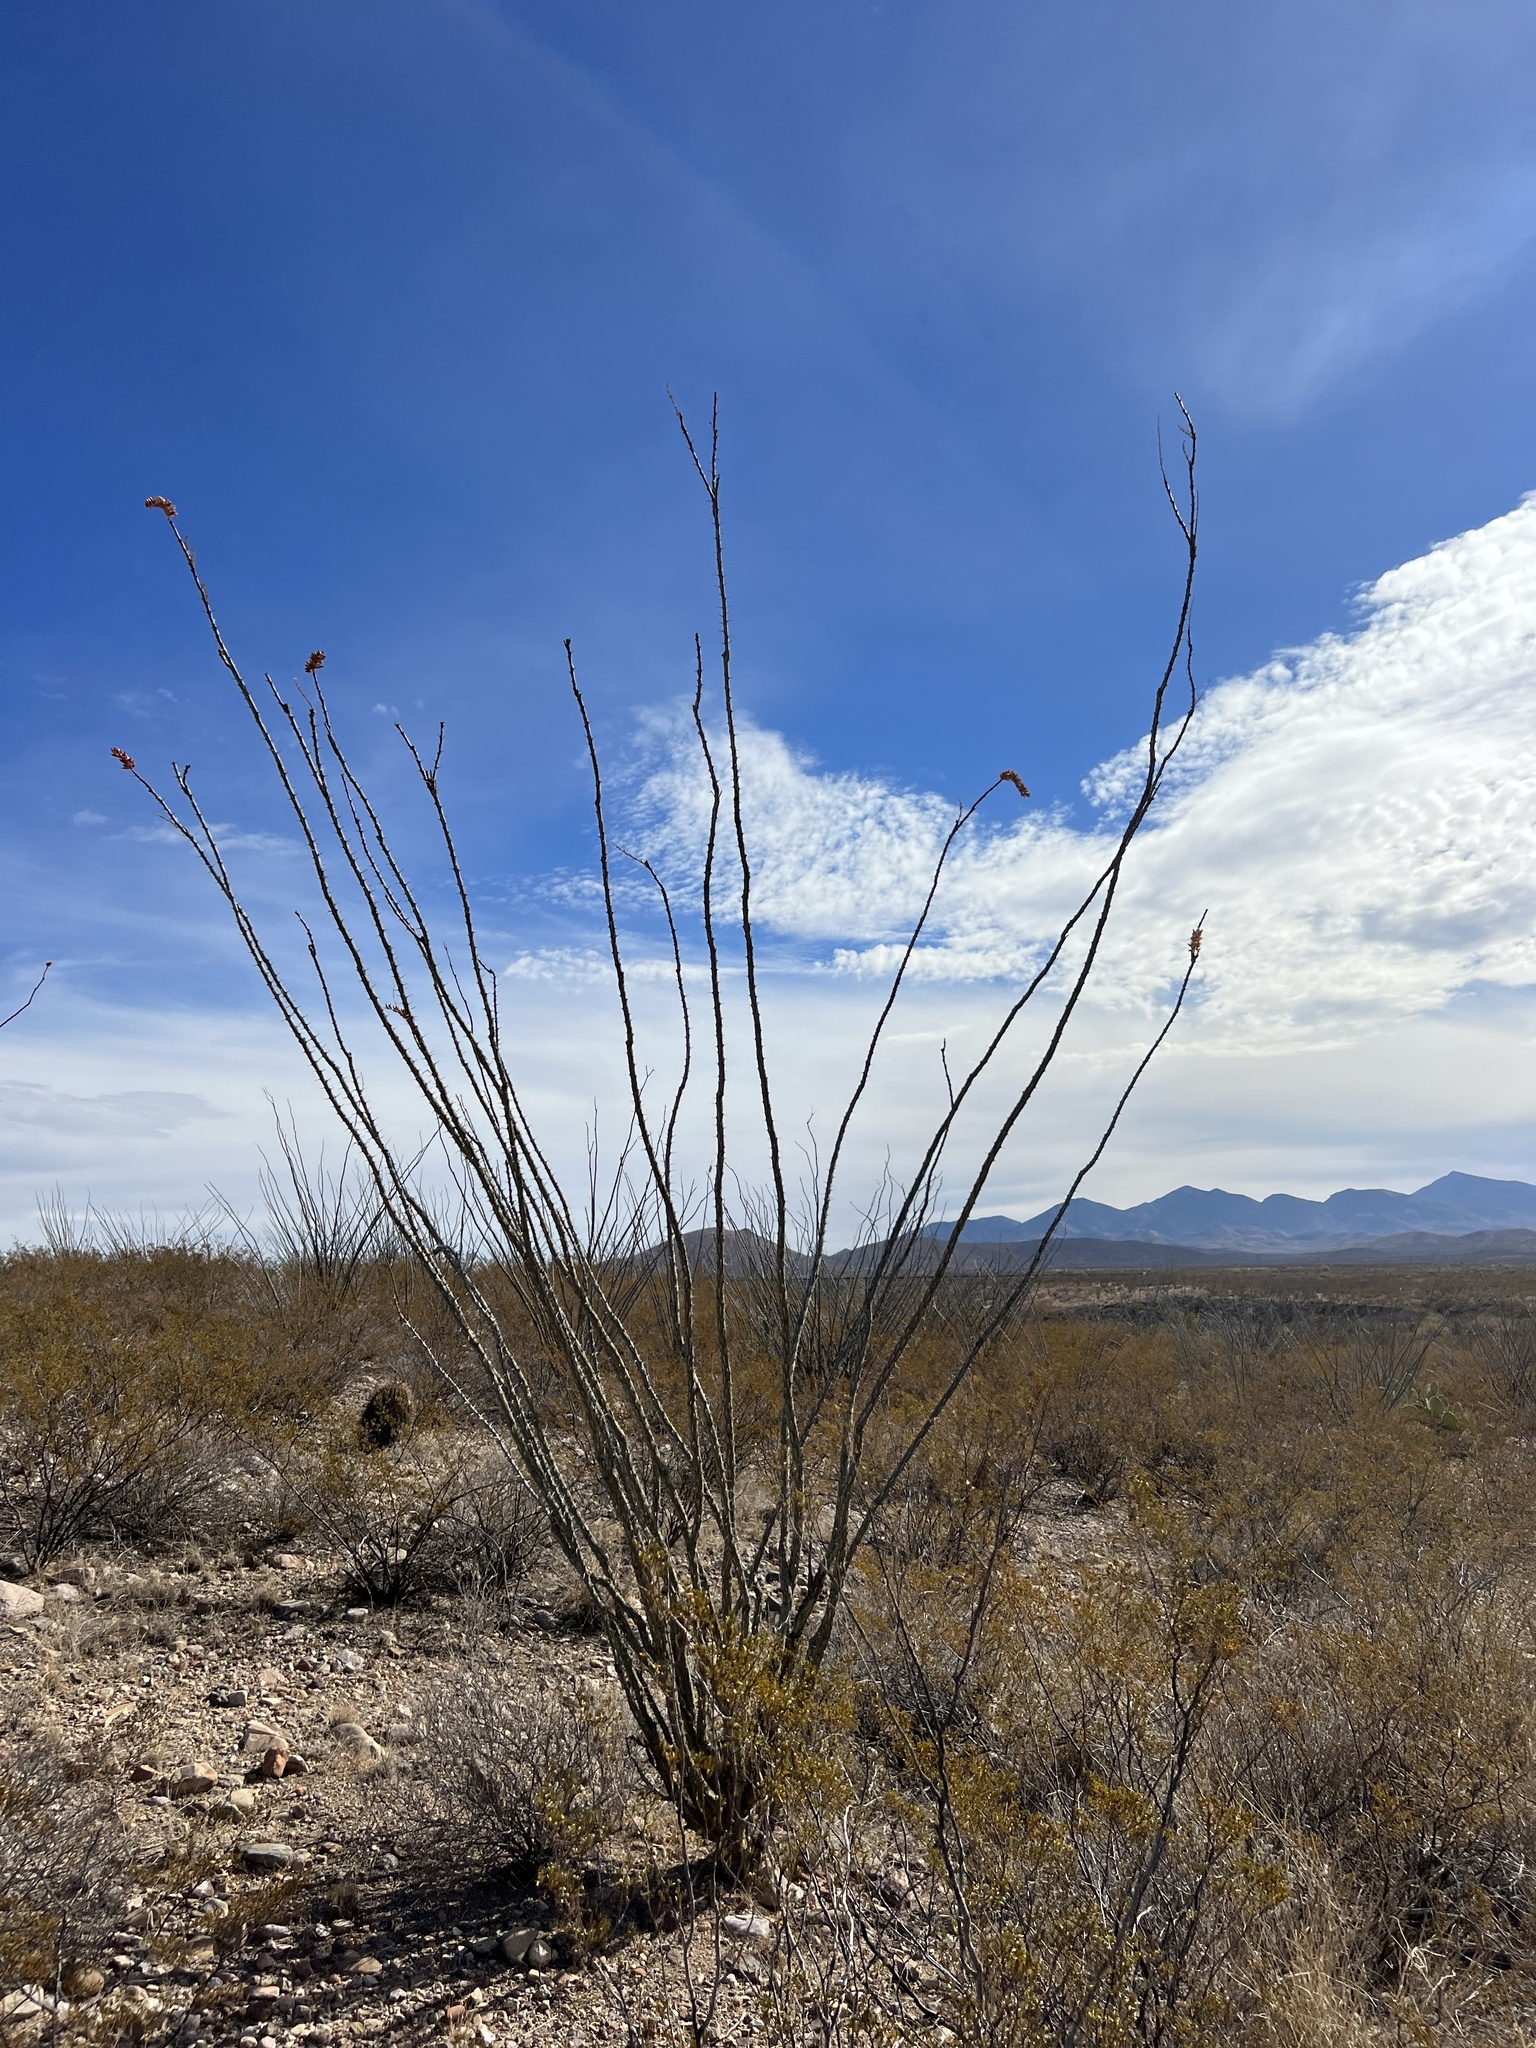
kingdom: Plantae
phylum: Tracheophyta
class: Magnoliopsida
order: Ericales
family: Fouquieriaceae
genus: Fouquieria
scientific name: Fouquieria splendens
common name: Vine-cactus
